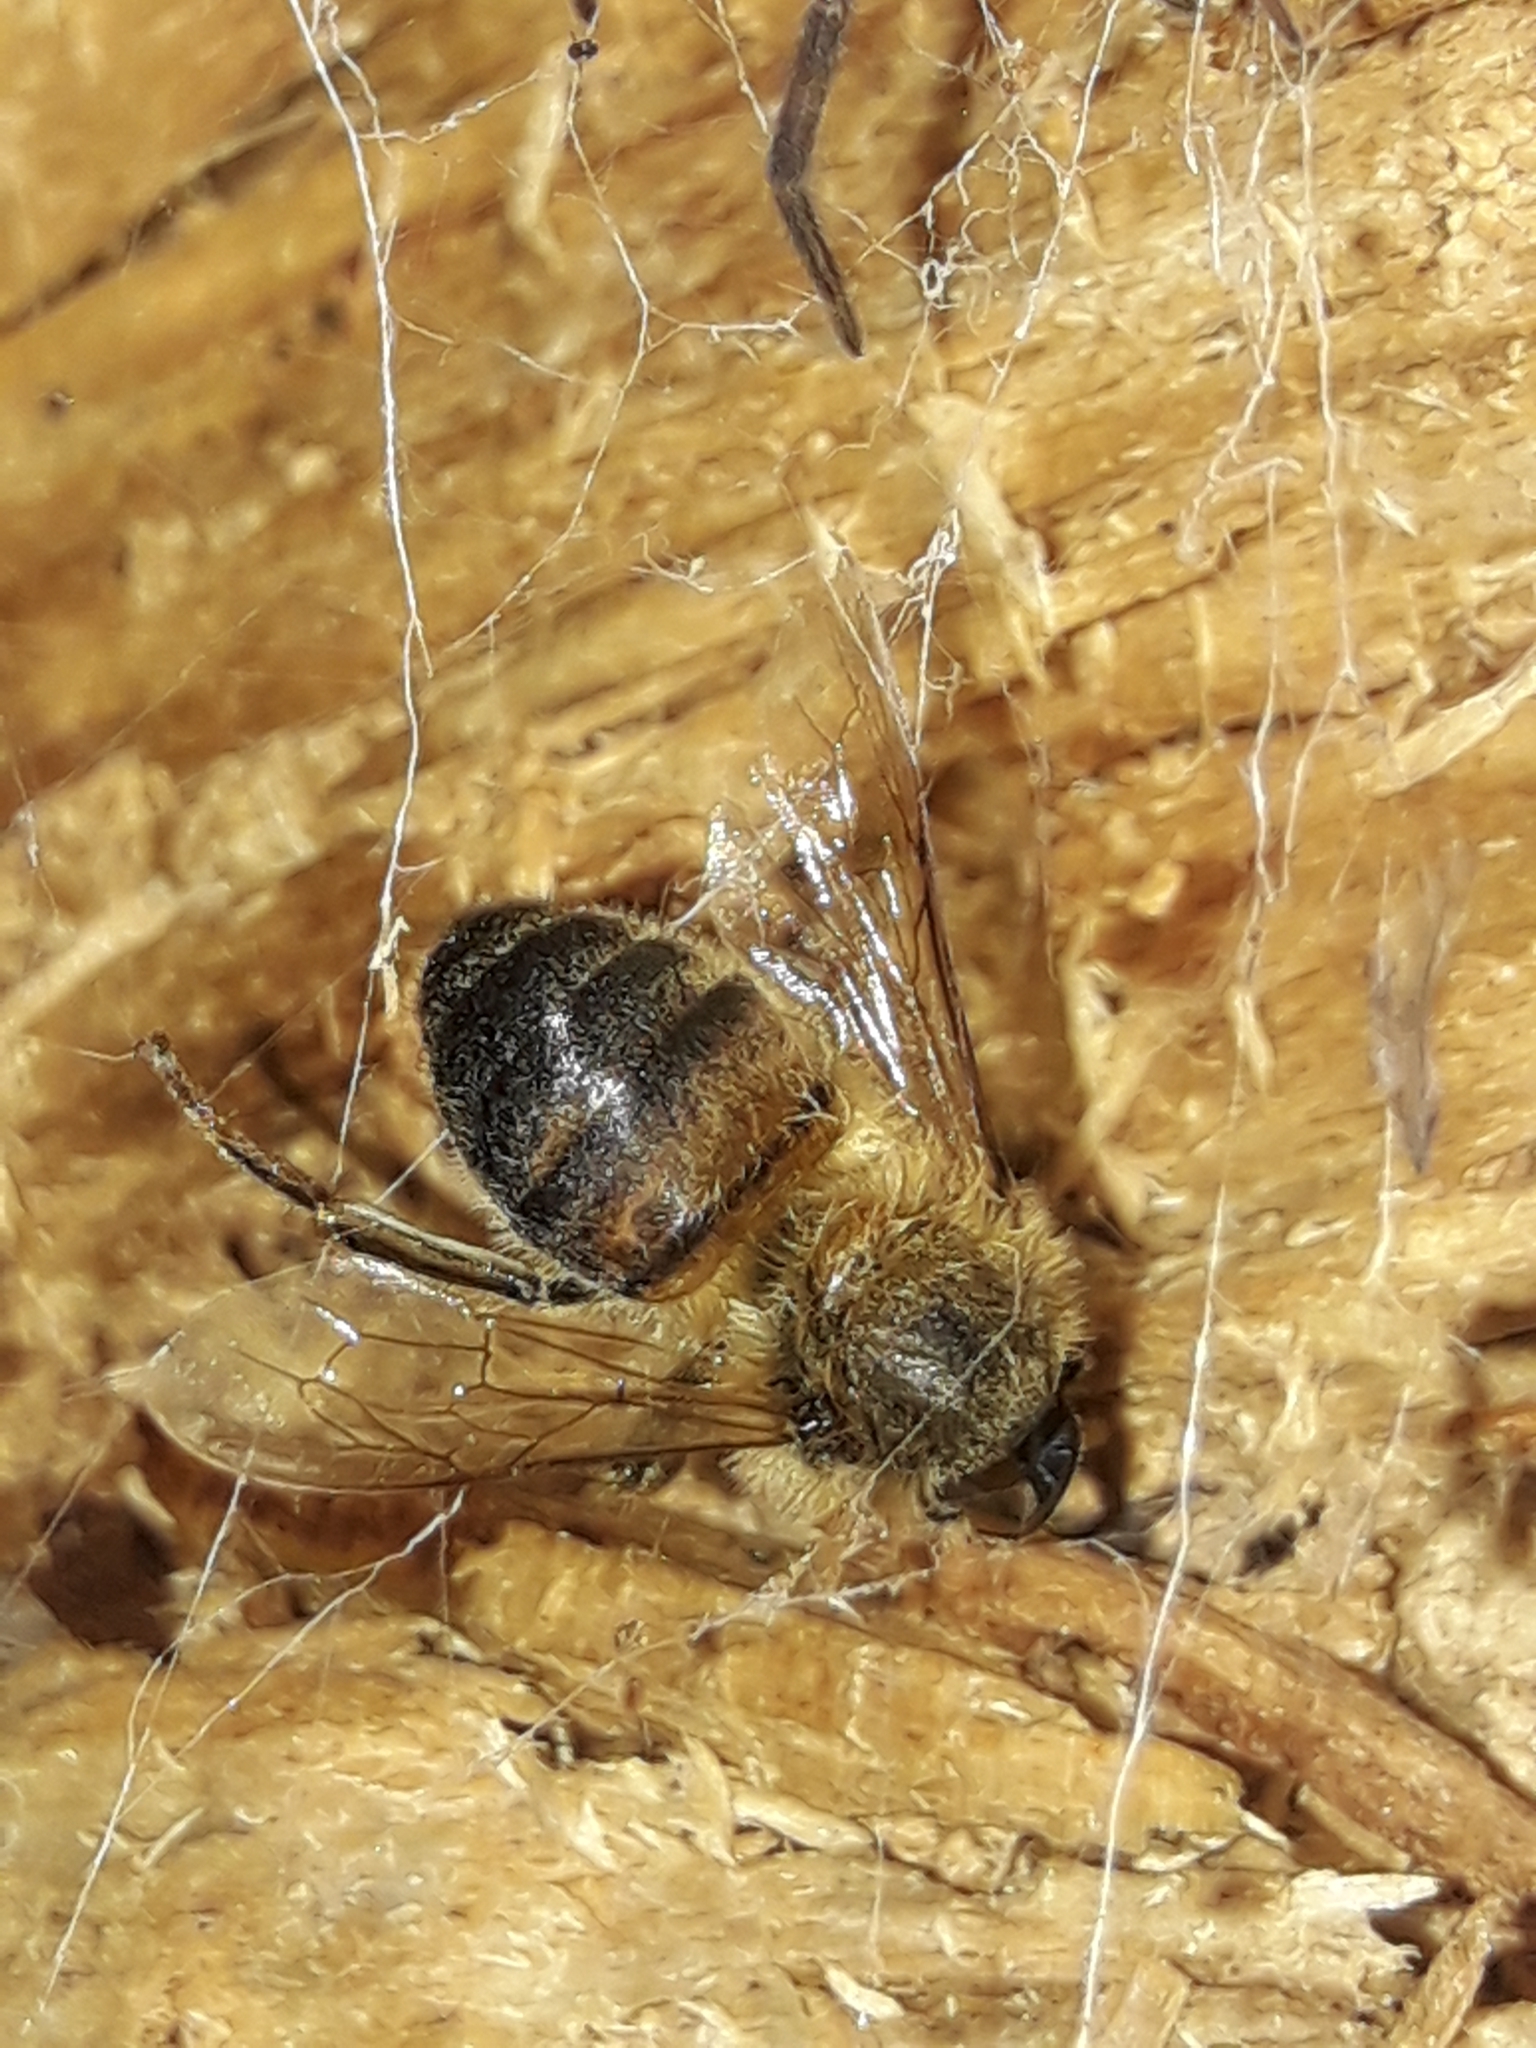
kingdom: Animalia
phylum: Arthropoda
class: Insecta
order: Hymenoptera
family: Apidae
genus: Apis
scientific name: Apis mellifera
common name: Honey bee
